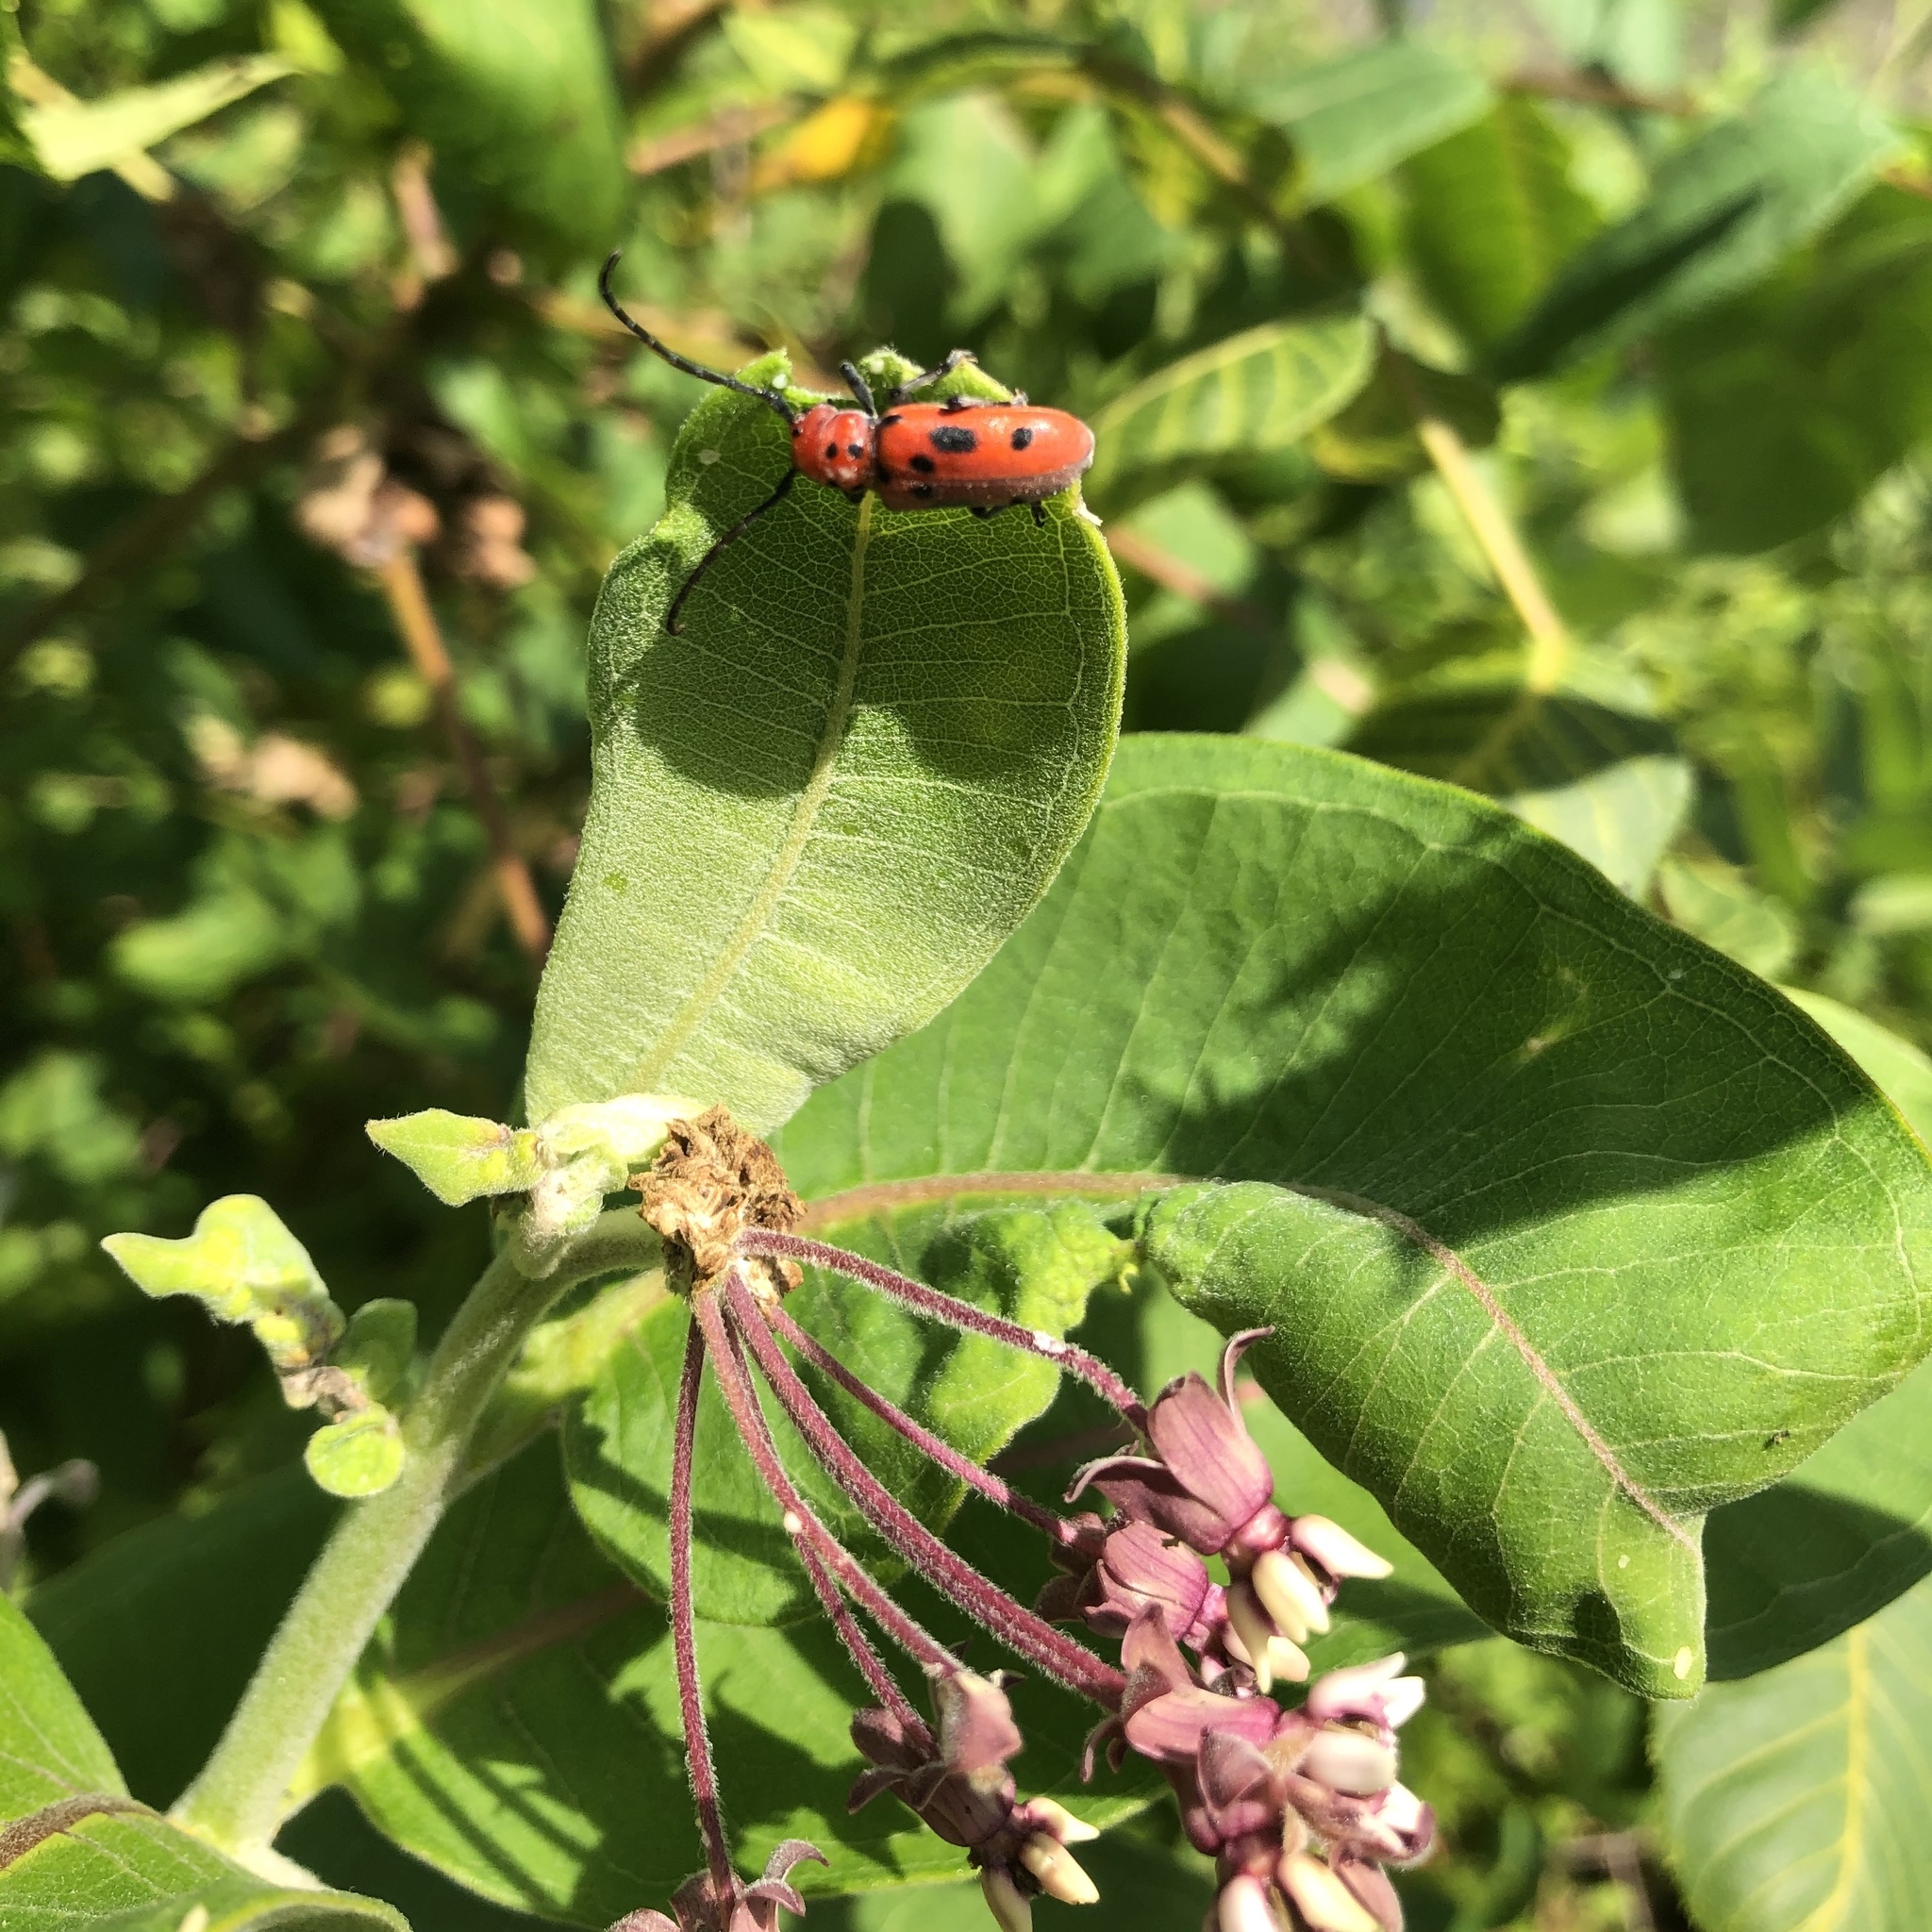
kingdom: Animalia
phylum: Arthropoda
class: Insecta
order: Coleoptera
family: Cerambycidae
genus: Tetraopes
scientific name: Tetraopes tetrophthalmus
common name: Red milkweed beetle
